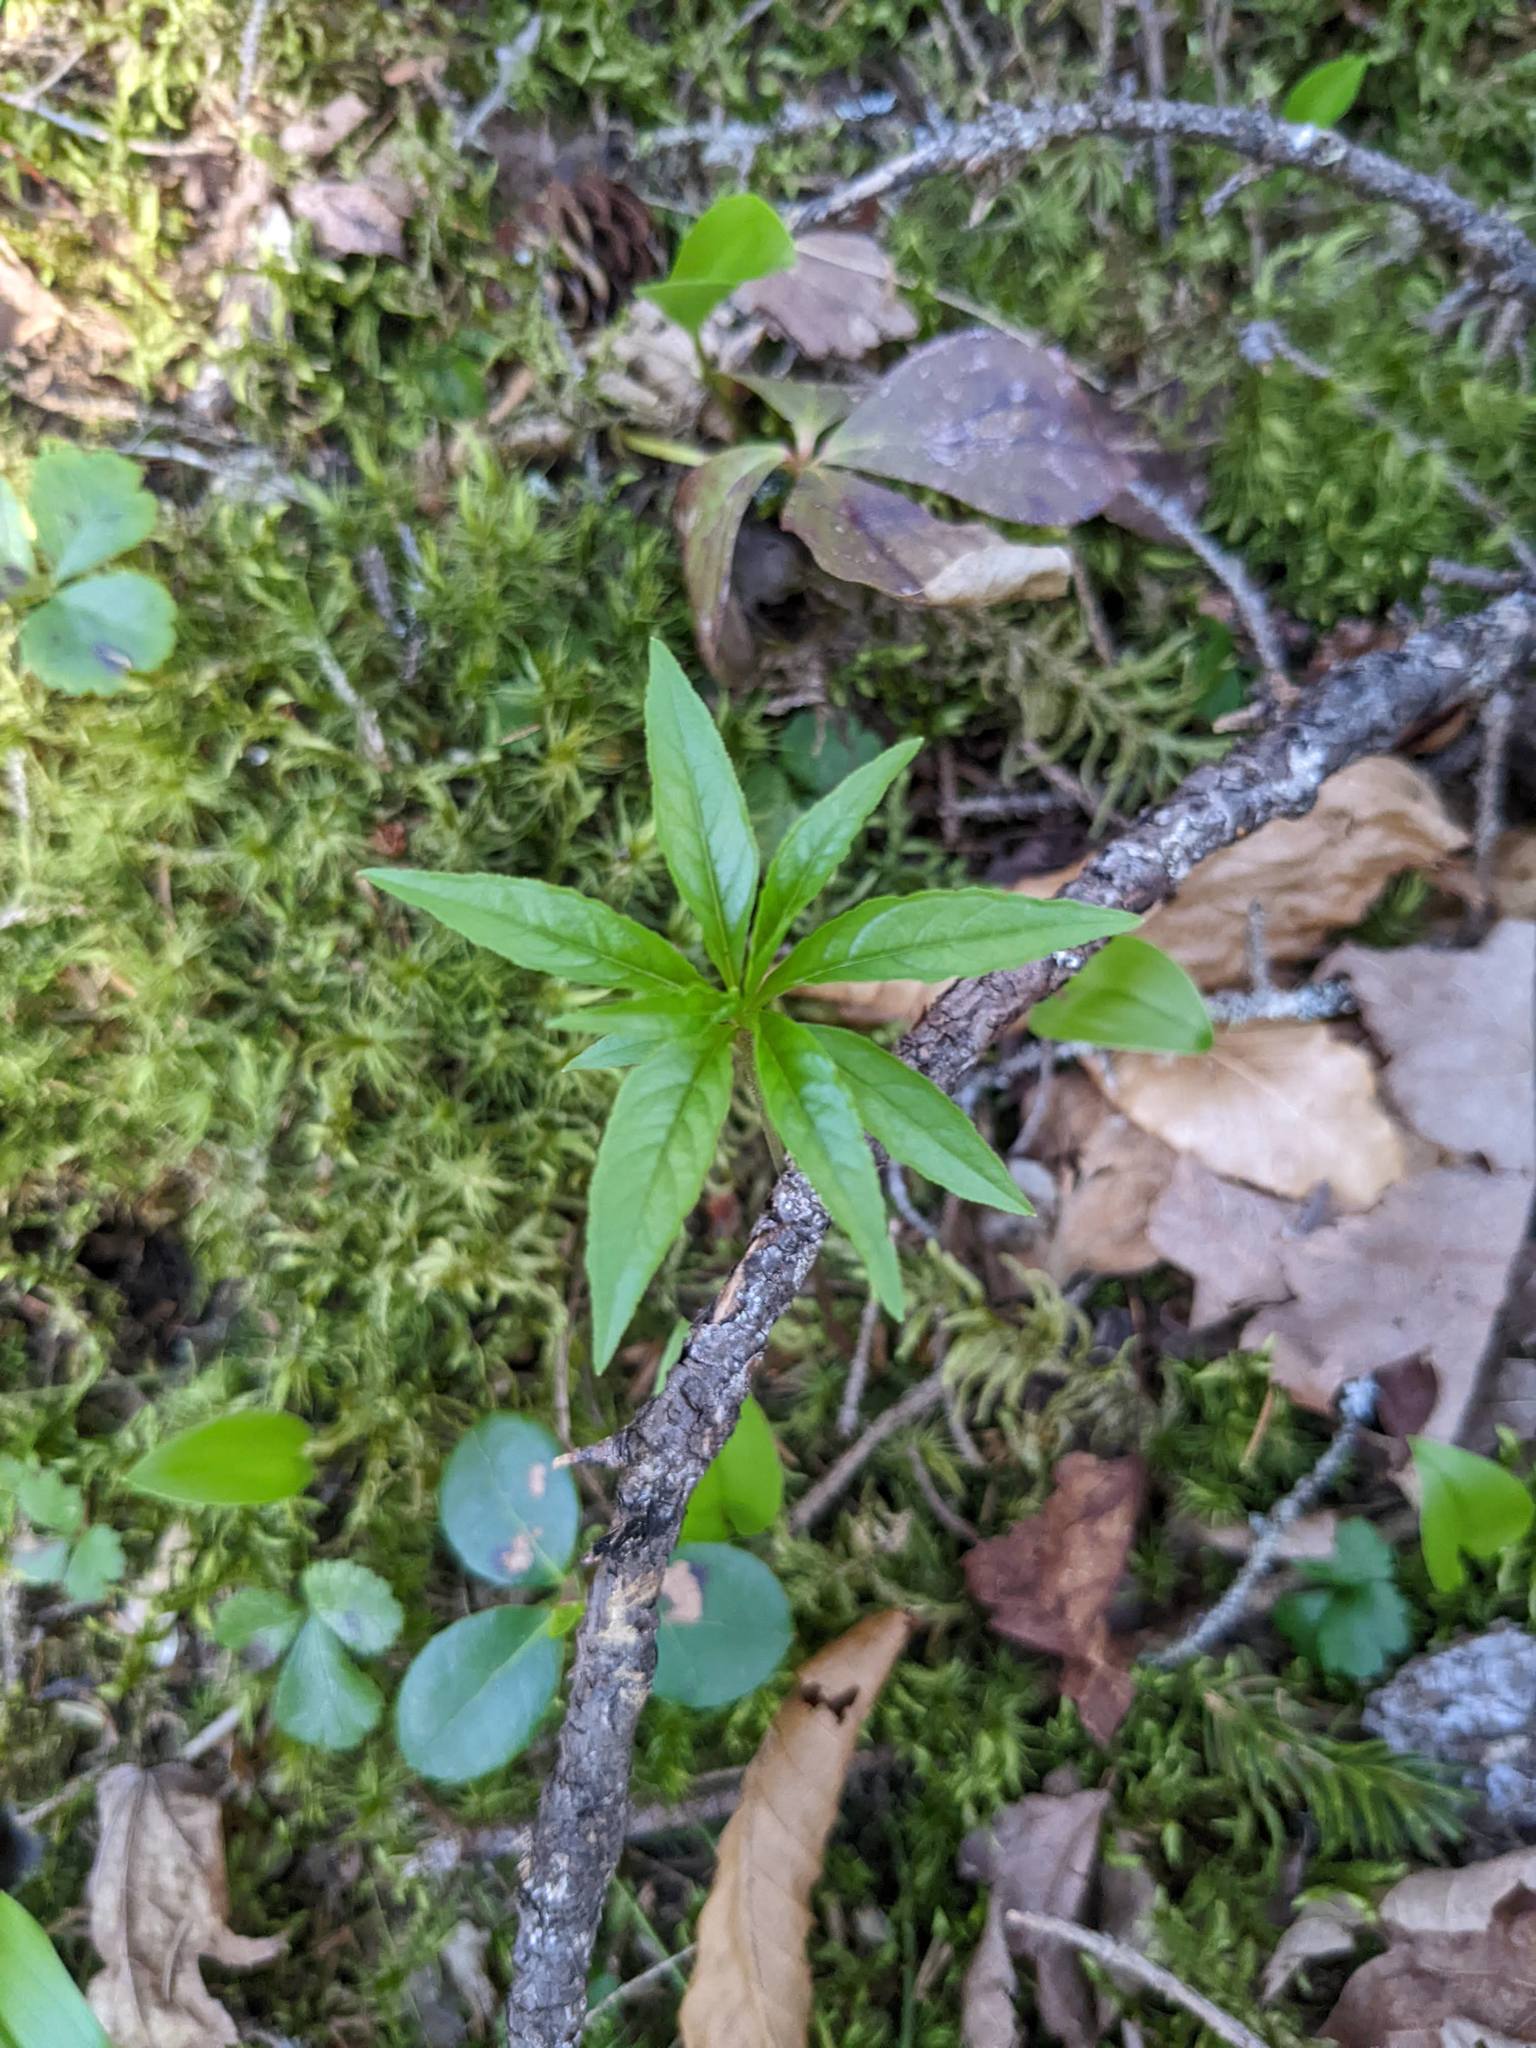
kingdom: Plantae
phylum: Tracheophyta
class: Magnoliopsida
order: Ericales
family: Primulaceae
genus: Lysimachia
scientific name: Lysimachia borealis
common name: American starflower
